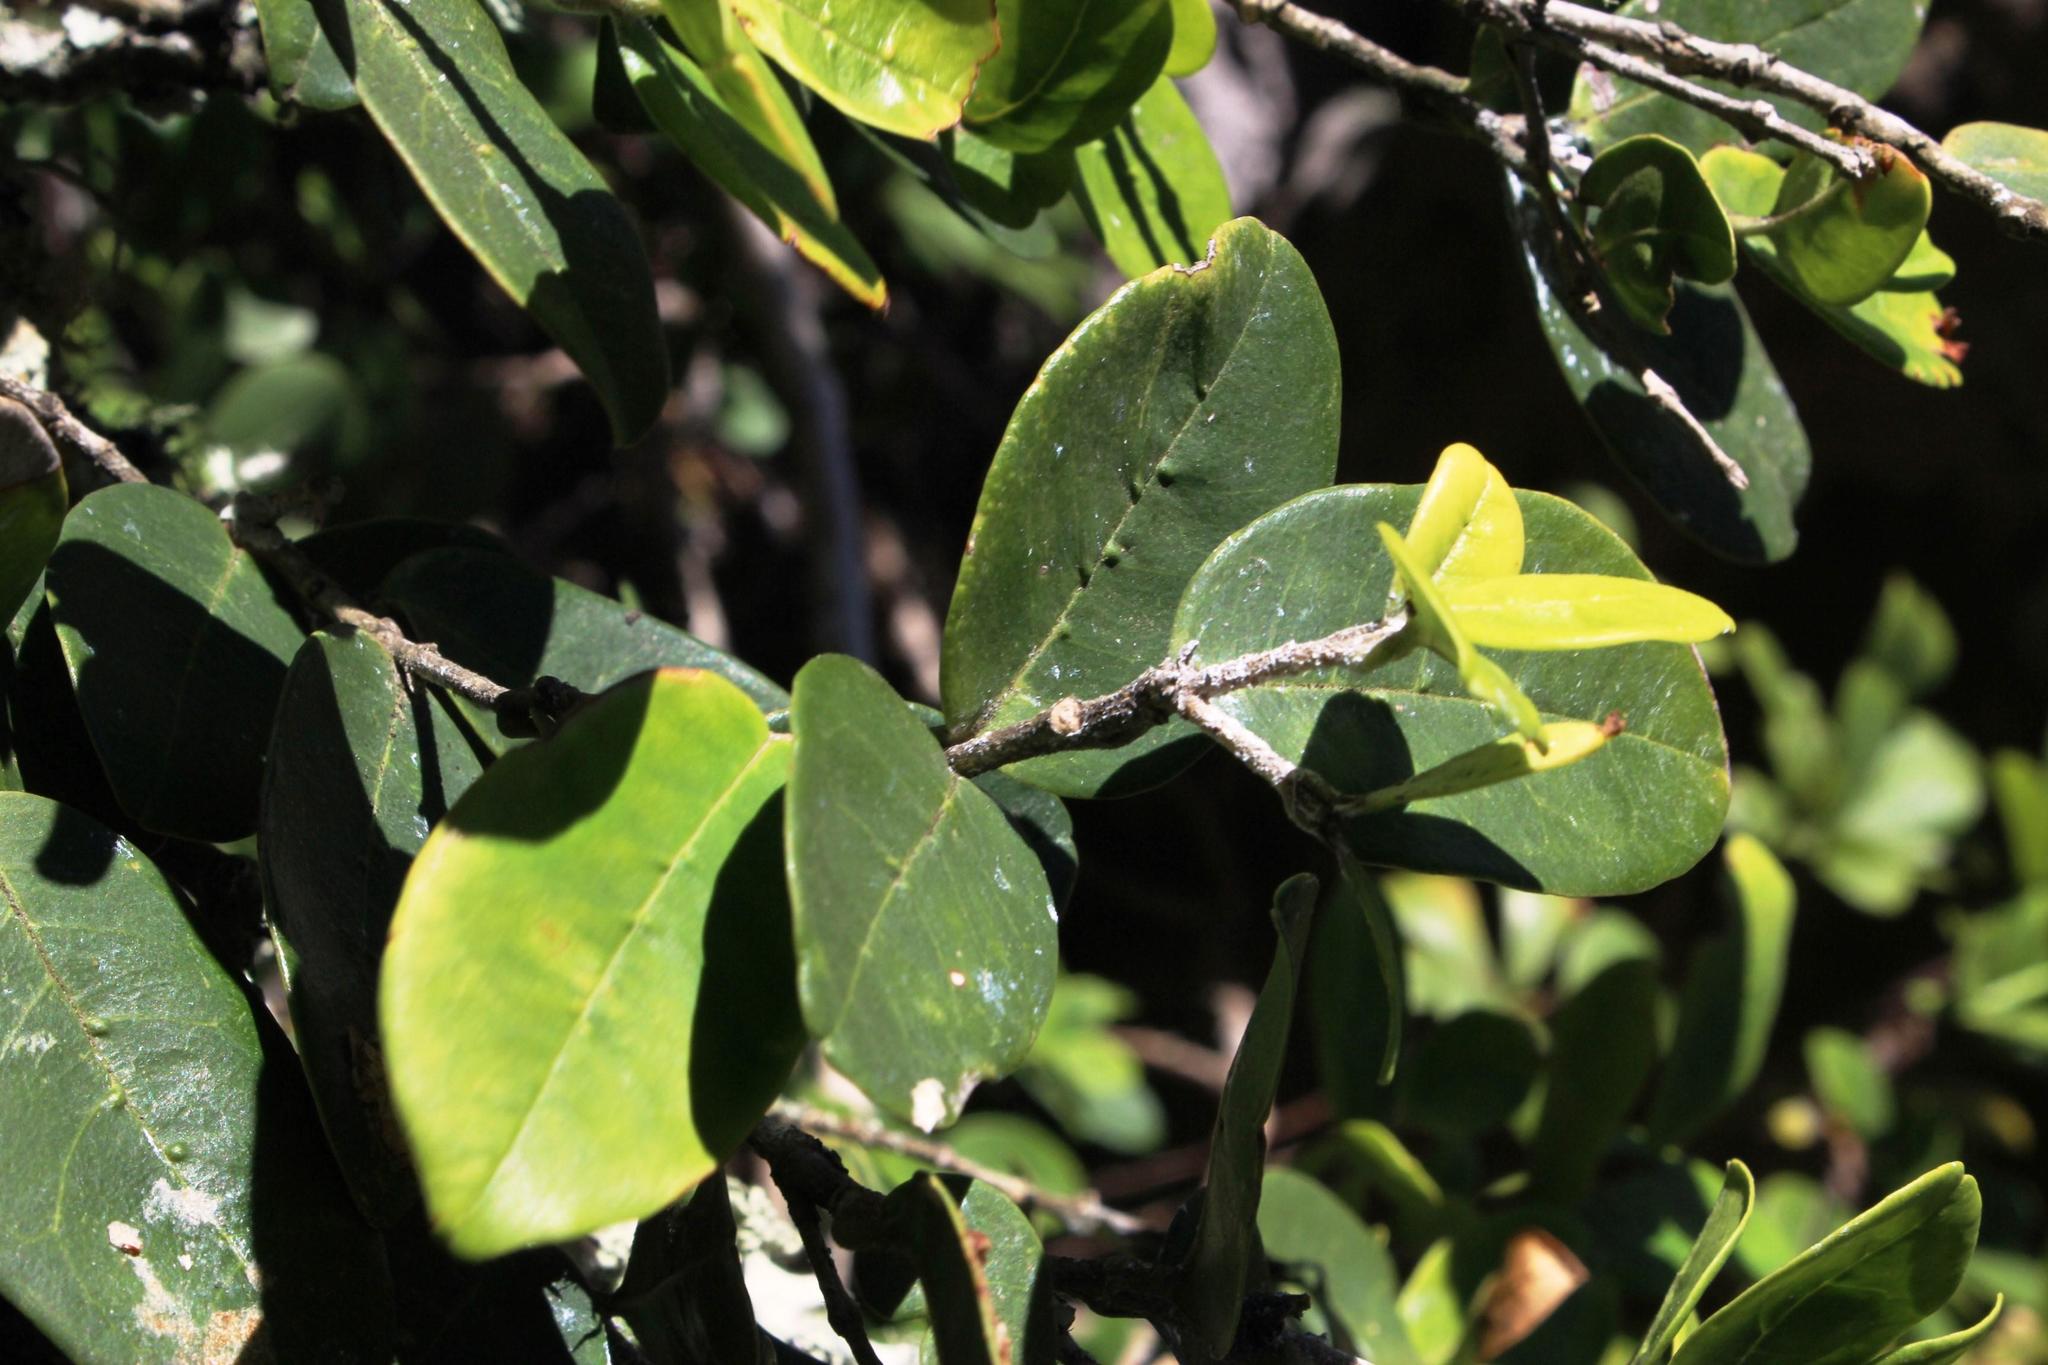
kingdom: Plantae
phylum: Tracheophyta
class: Magnoliopsida
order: Lamiales
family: Oleaceae
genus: Noronhia
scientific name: Noronhia foveolata
